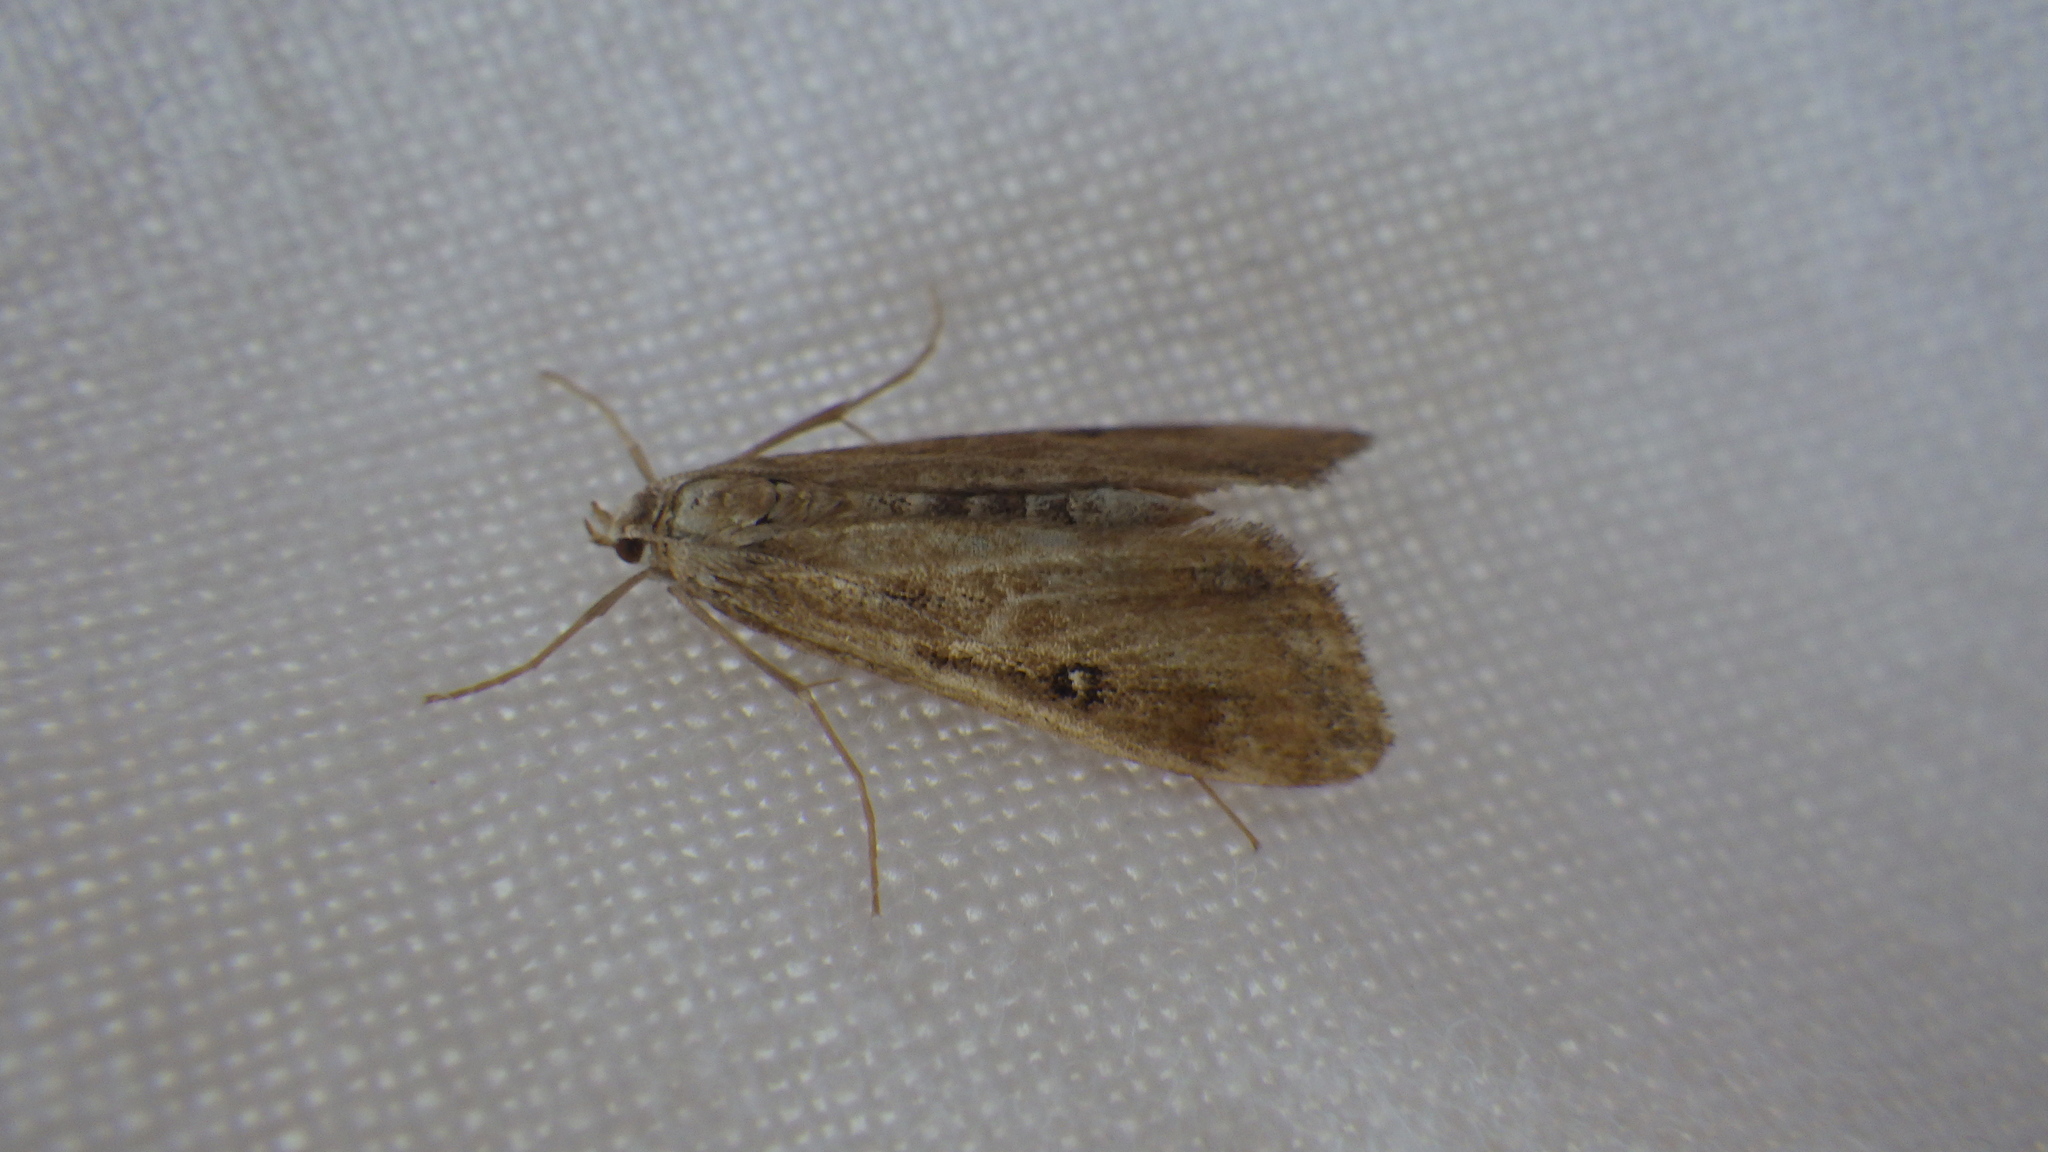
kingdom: Animalia
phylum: Arthropoda
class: Insecta
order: Lepidoptera
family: Crambidae
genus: Parapoynx
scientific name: Parapoynx stratiotata
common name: Ringed china-mark
